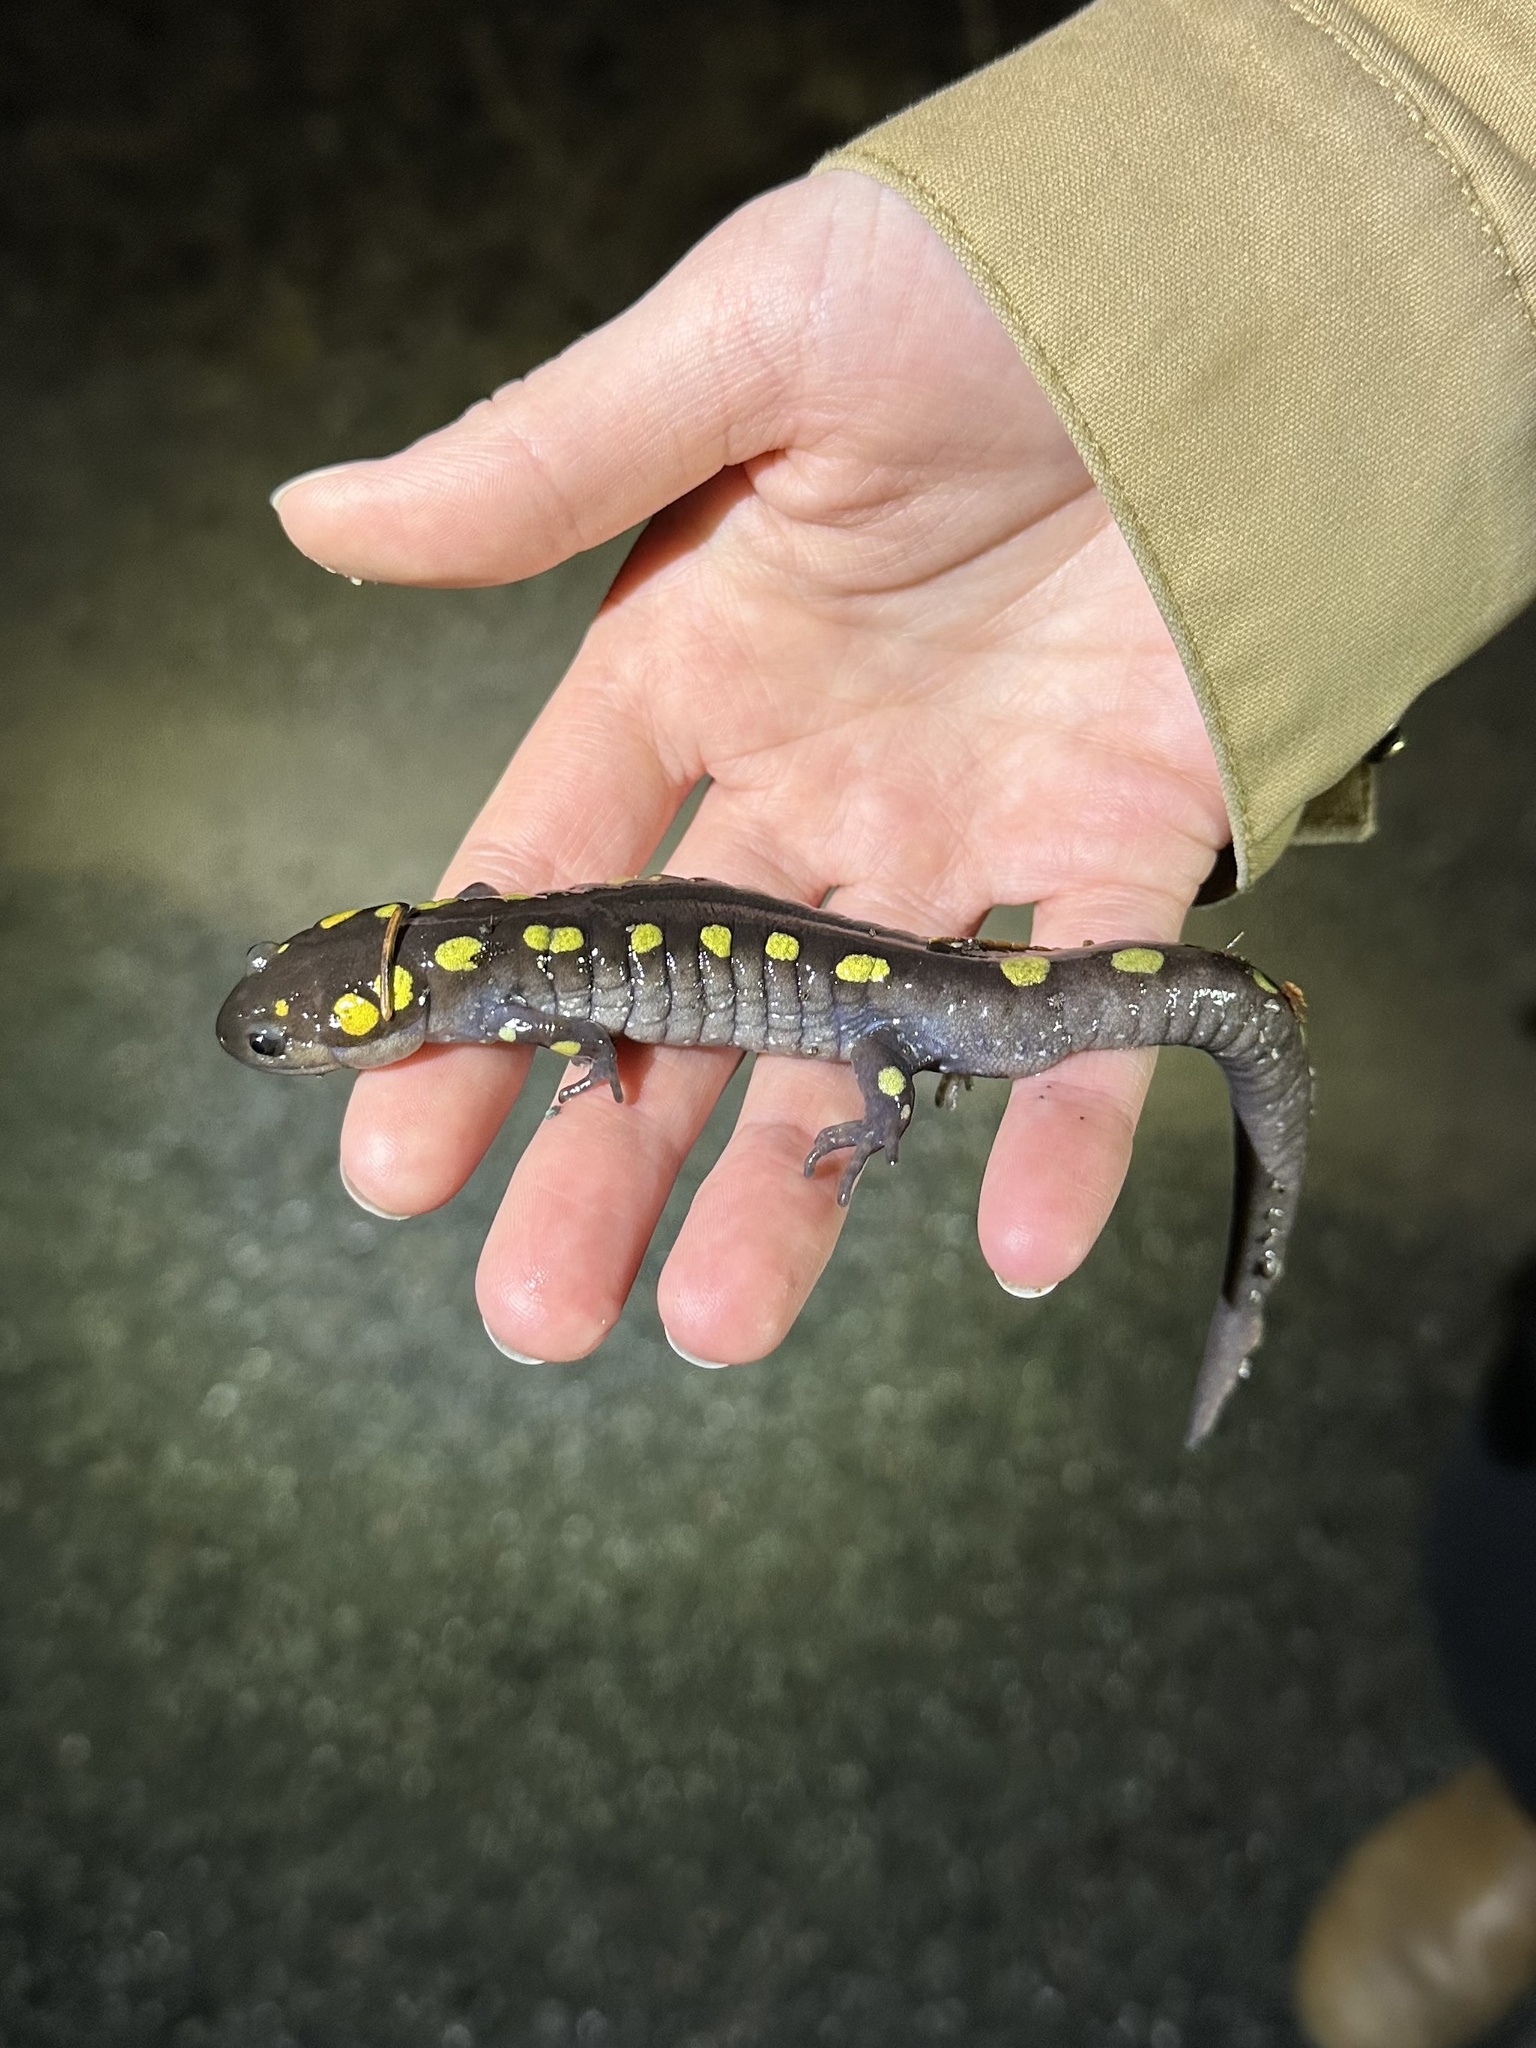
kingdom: Animalia
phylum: Chordata
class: Amphibia
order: Caudata
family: Ambystomatidae
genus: Ambystoma
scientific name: Ambystoma maculatum
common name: Spotted salamander
